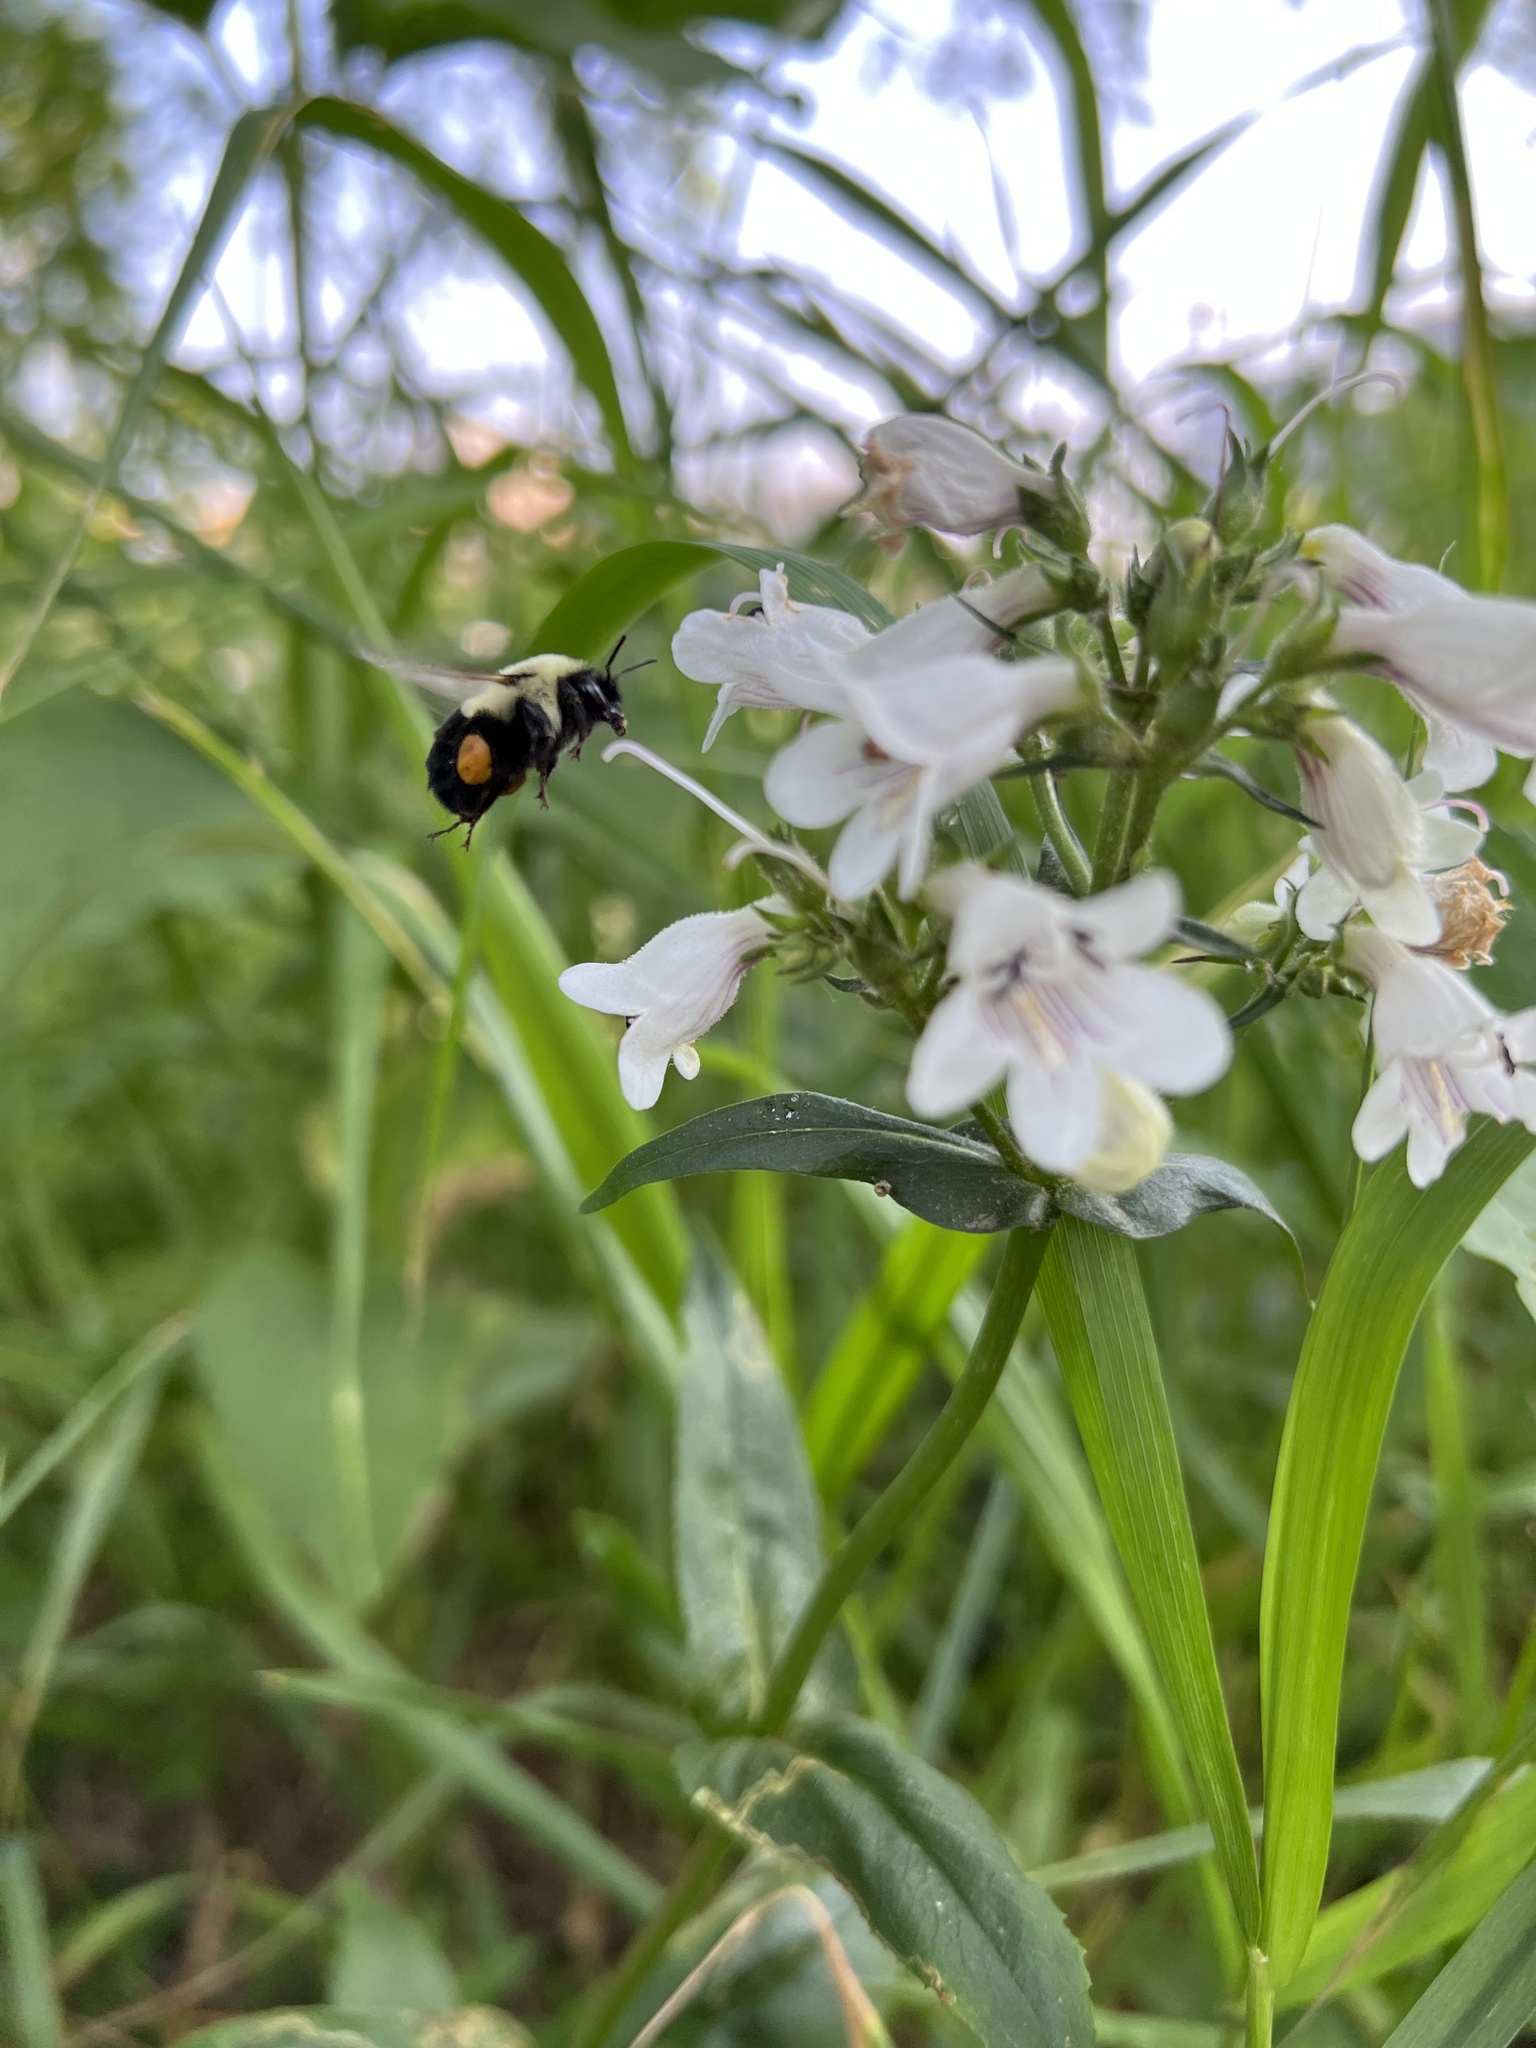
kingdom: Animalia
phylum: Arthropoda
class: Insecta
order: Hymenoptera
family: Apidae
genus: Bombus
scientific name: Bombus impatiens
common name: Common eastern bumble bee
